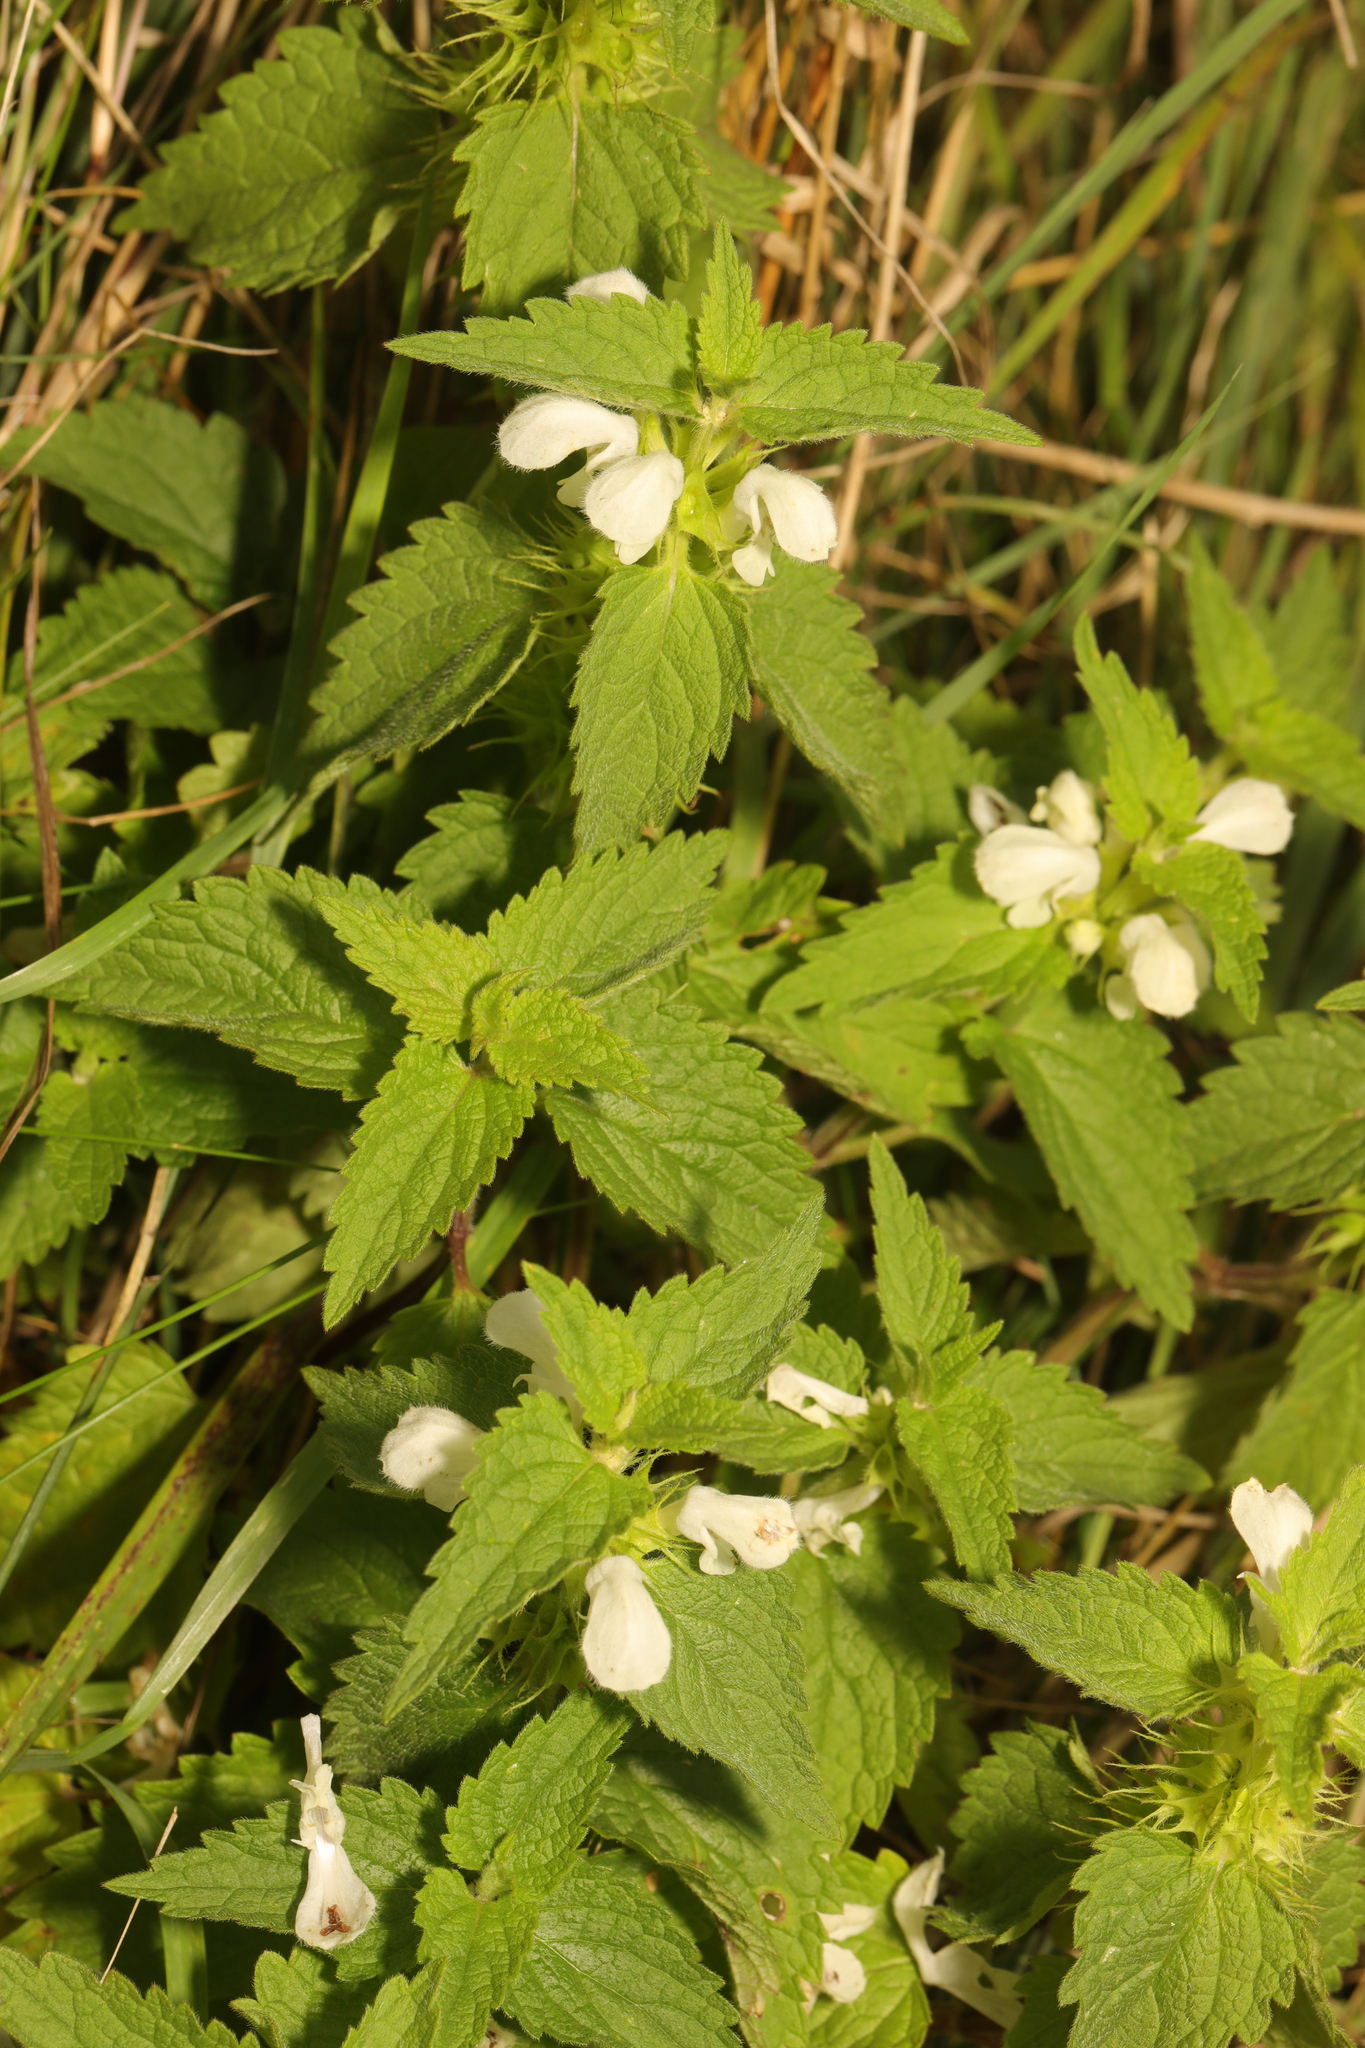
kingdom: Plantae
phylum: Tracheophyta
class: Magnoliopsida
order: Lamiales
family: Lamiaceae
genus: Lamium
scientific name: Lamium album
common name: White dead-nettle
